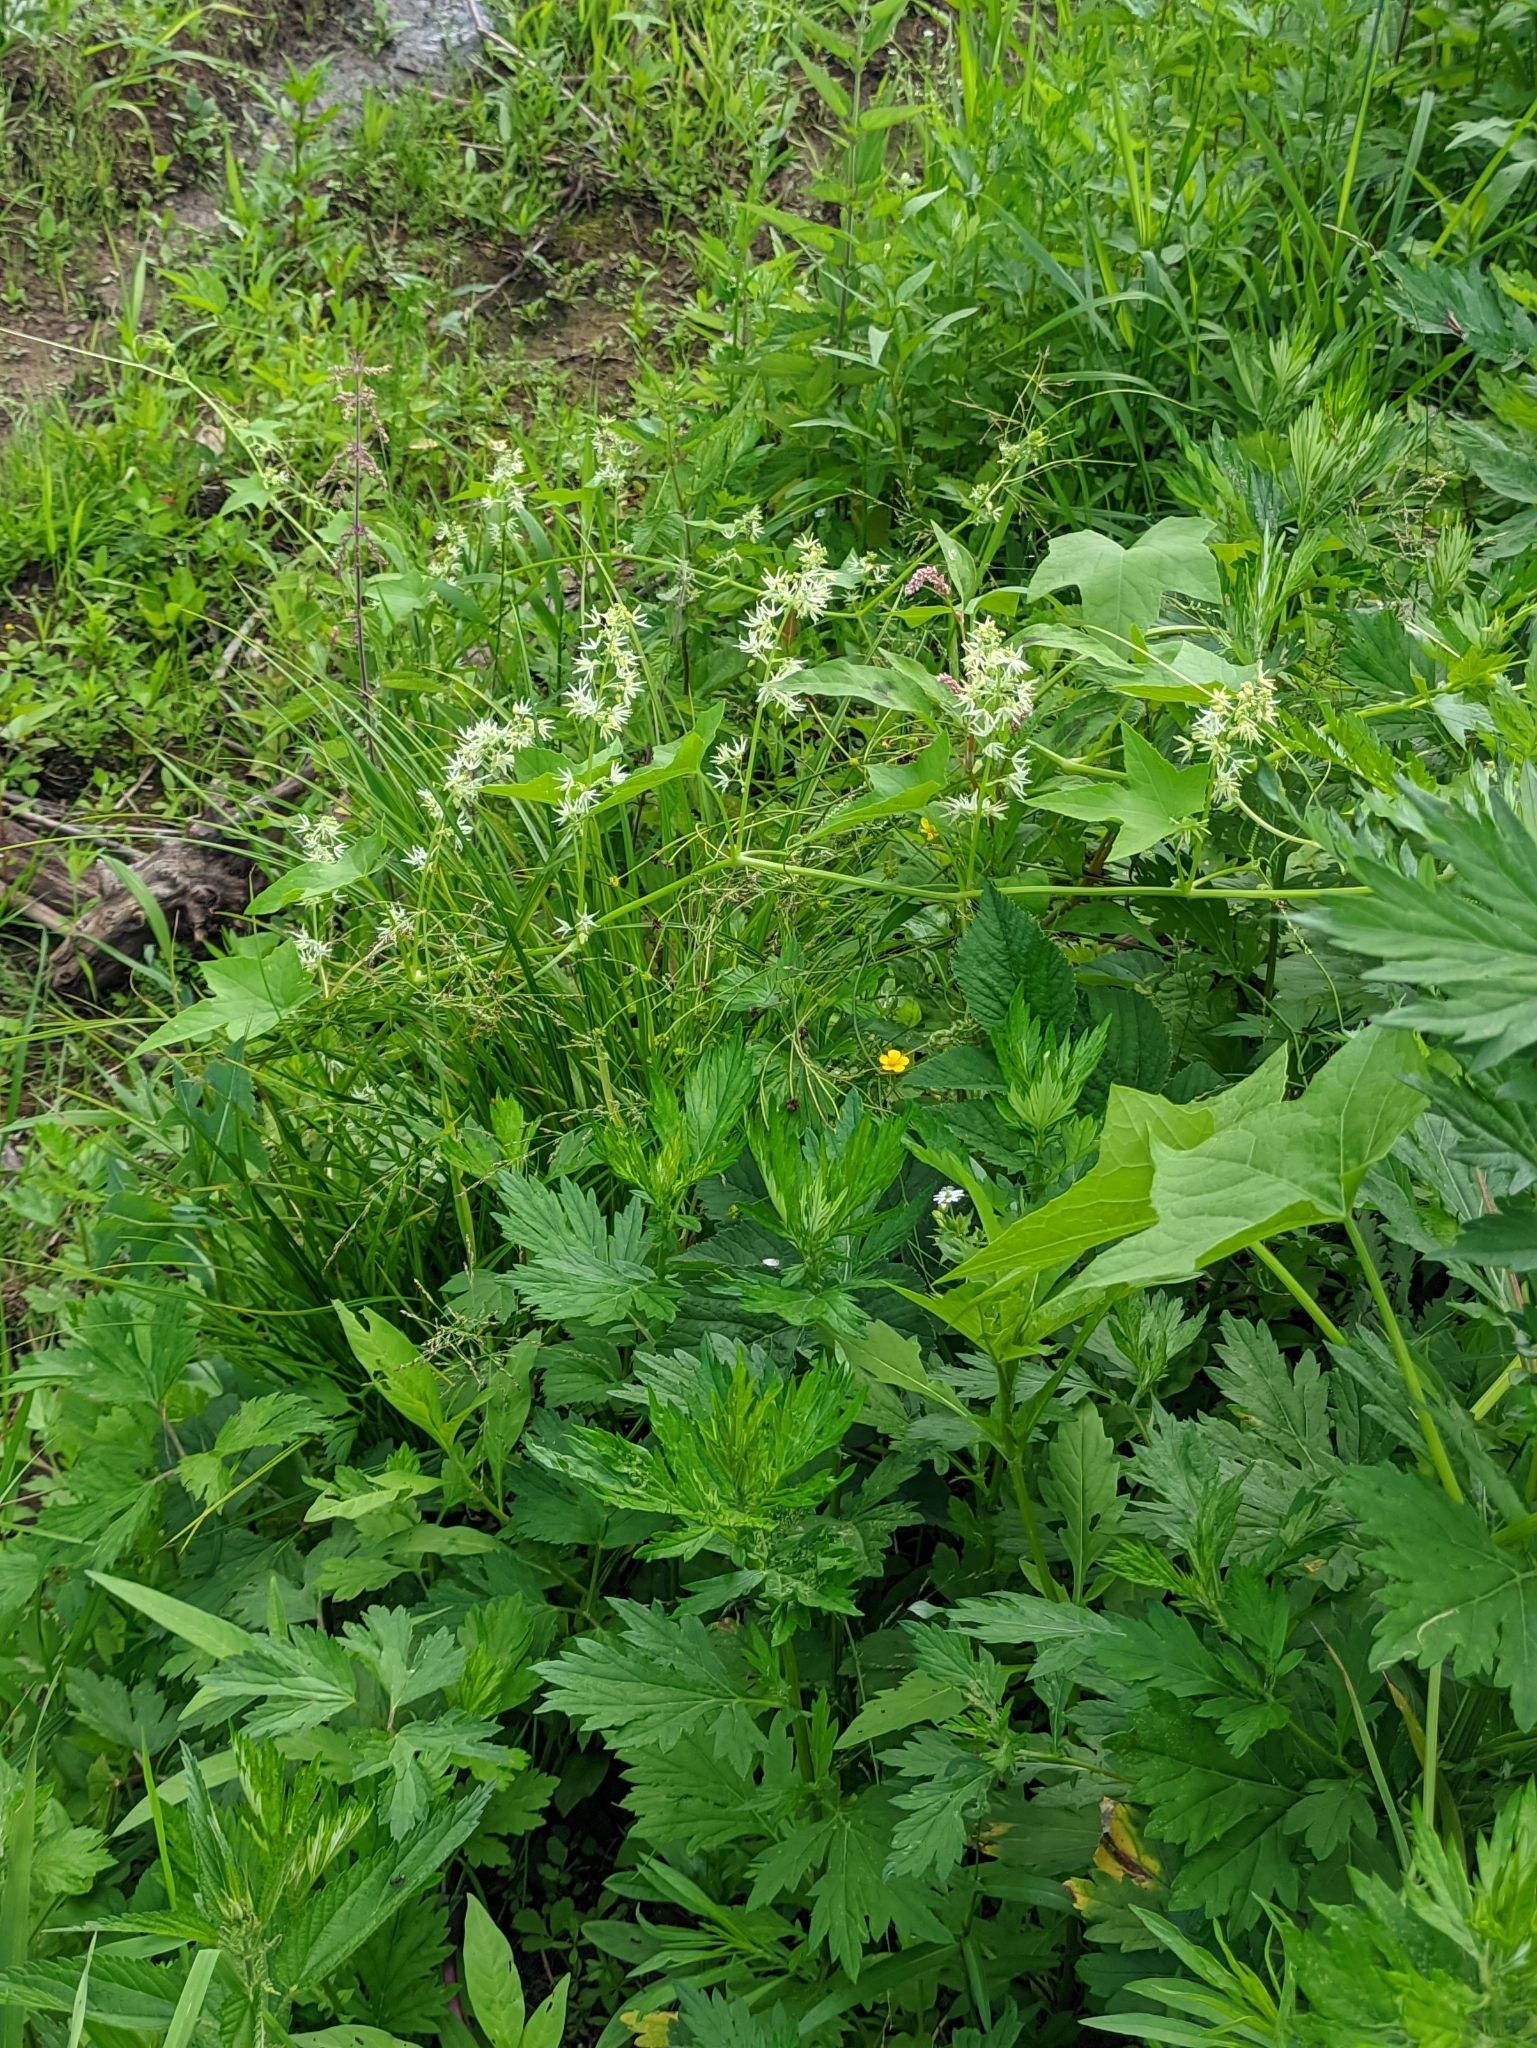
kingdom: Plantae
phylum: Tracheophyta
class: Magnoliopsida
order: Cucurbitales
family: Cucurbitaceae
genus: Echinocystis
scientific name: Echinocystis lobata
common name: Wild cucumber
